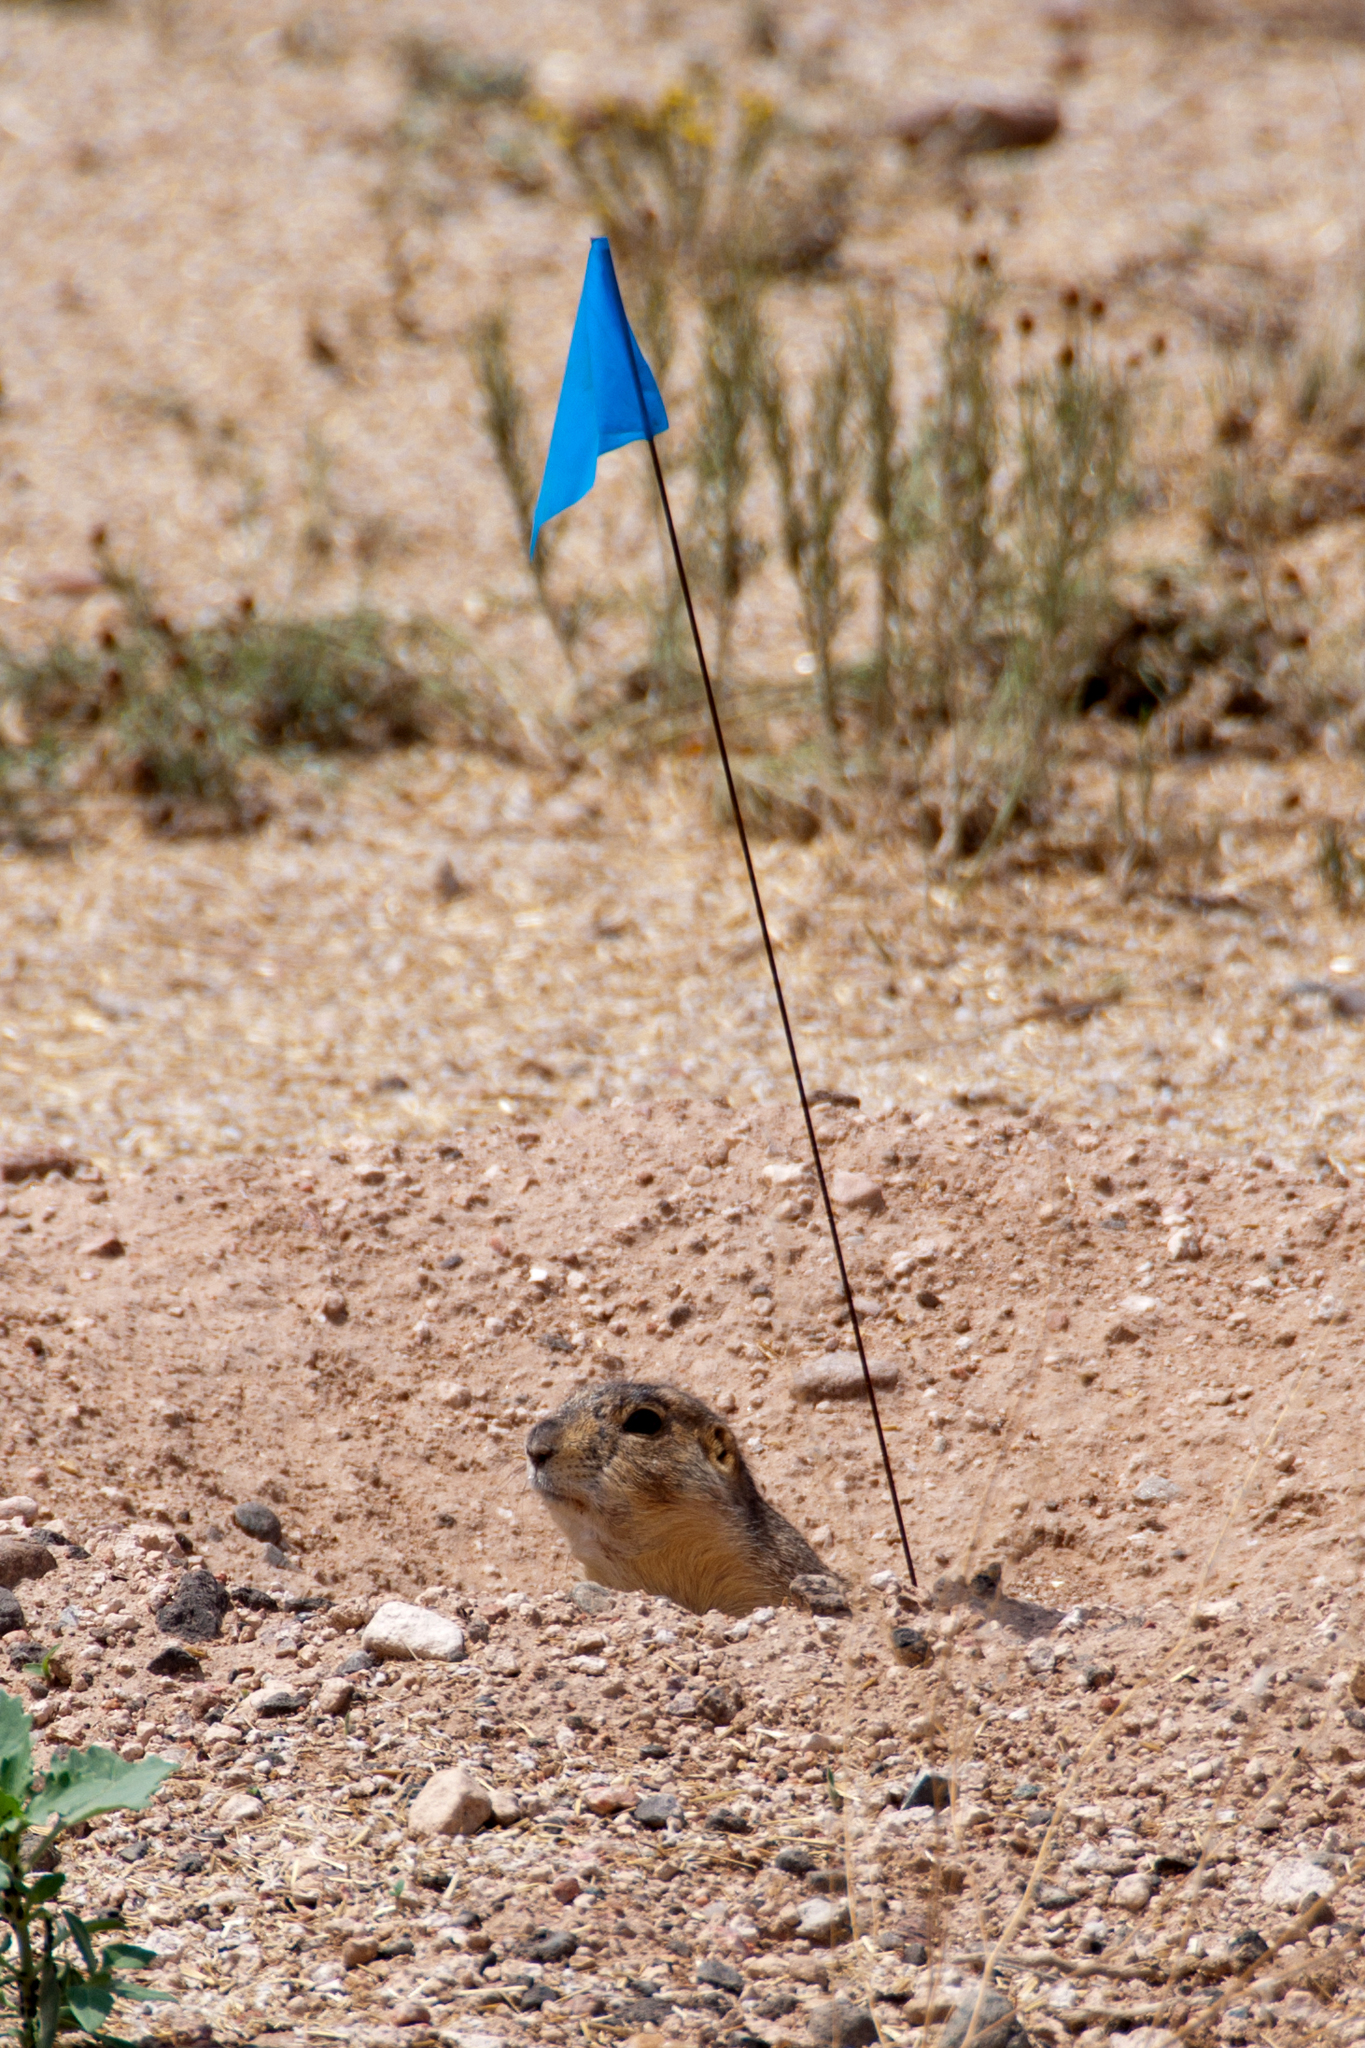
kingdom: Animalia
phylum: Chordata
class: Mammalia
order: Rodentia
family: Sciuridae
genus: Cynomys
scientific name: Cynomys gunnisoni
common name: Gunnison's prairie dog
